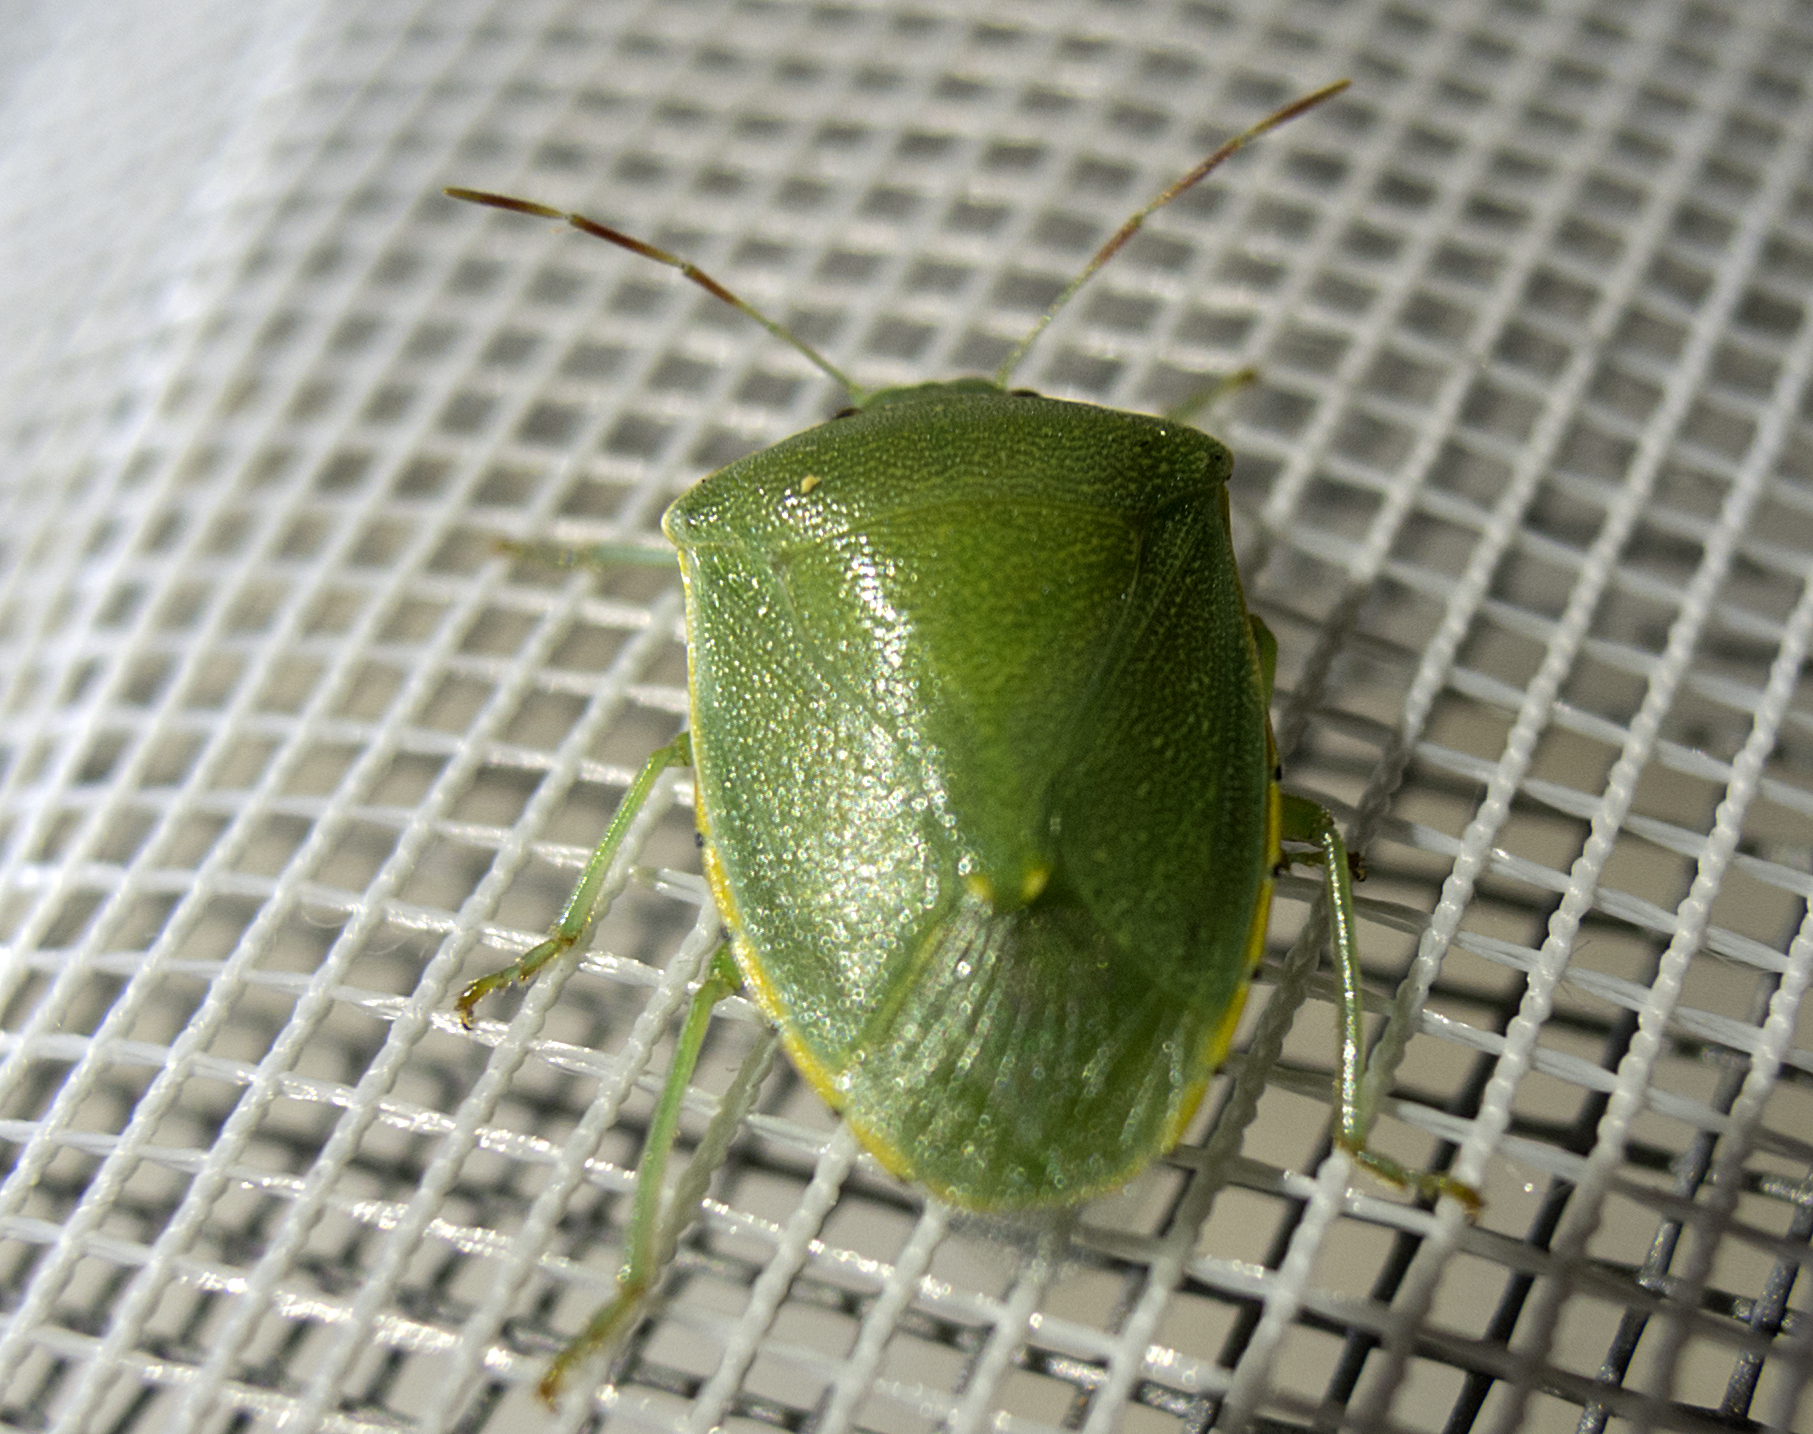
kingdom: Animalia
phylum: Arthropoda
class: Insecta
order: Hemiptera
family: Pentatomidae
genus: Acrosternum
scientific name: Acrosternum heegeri
